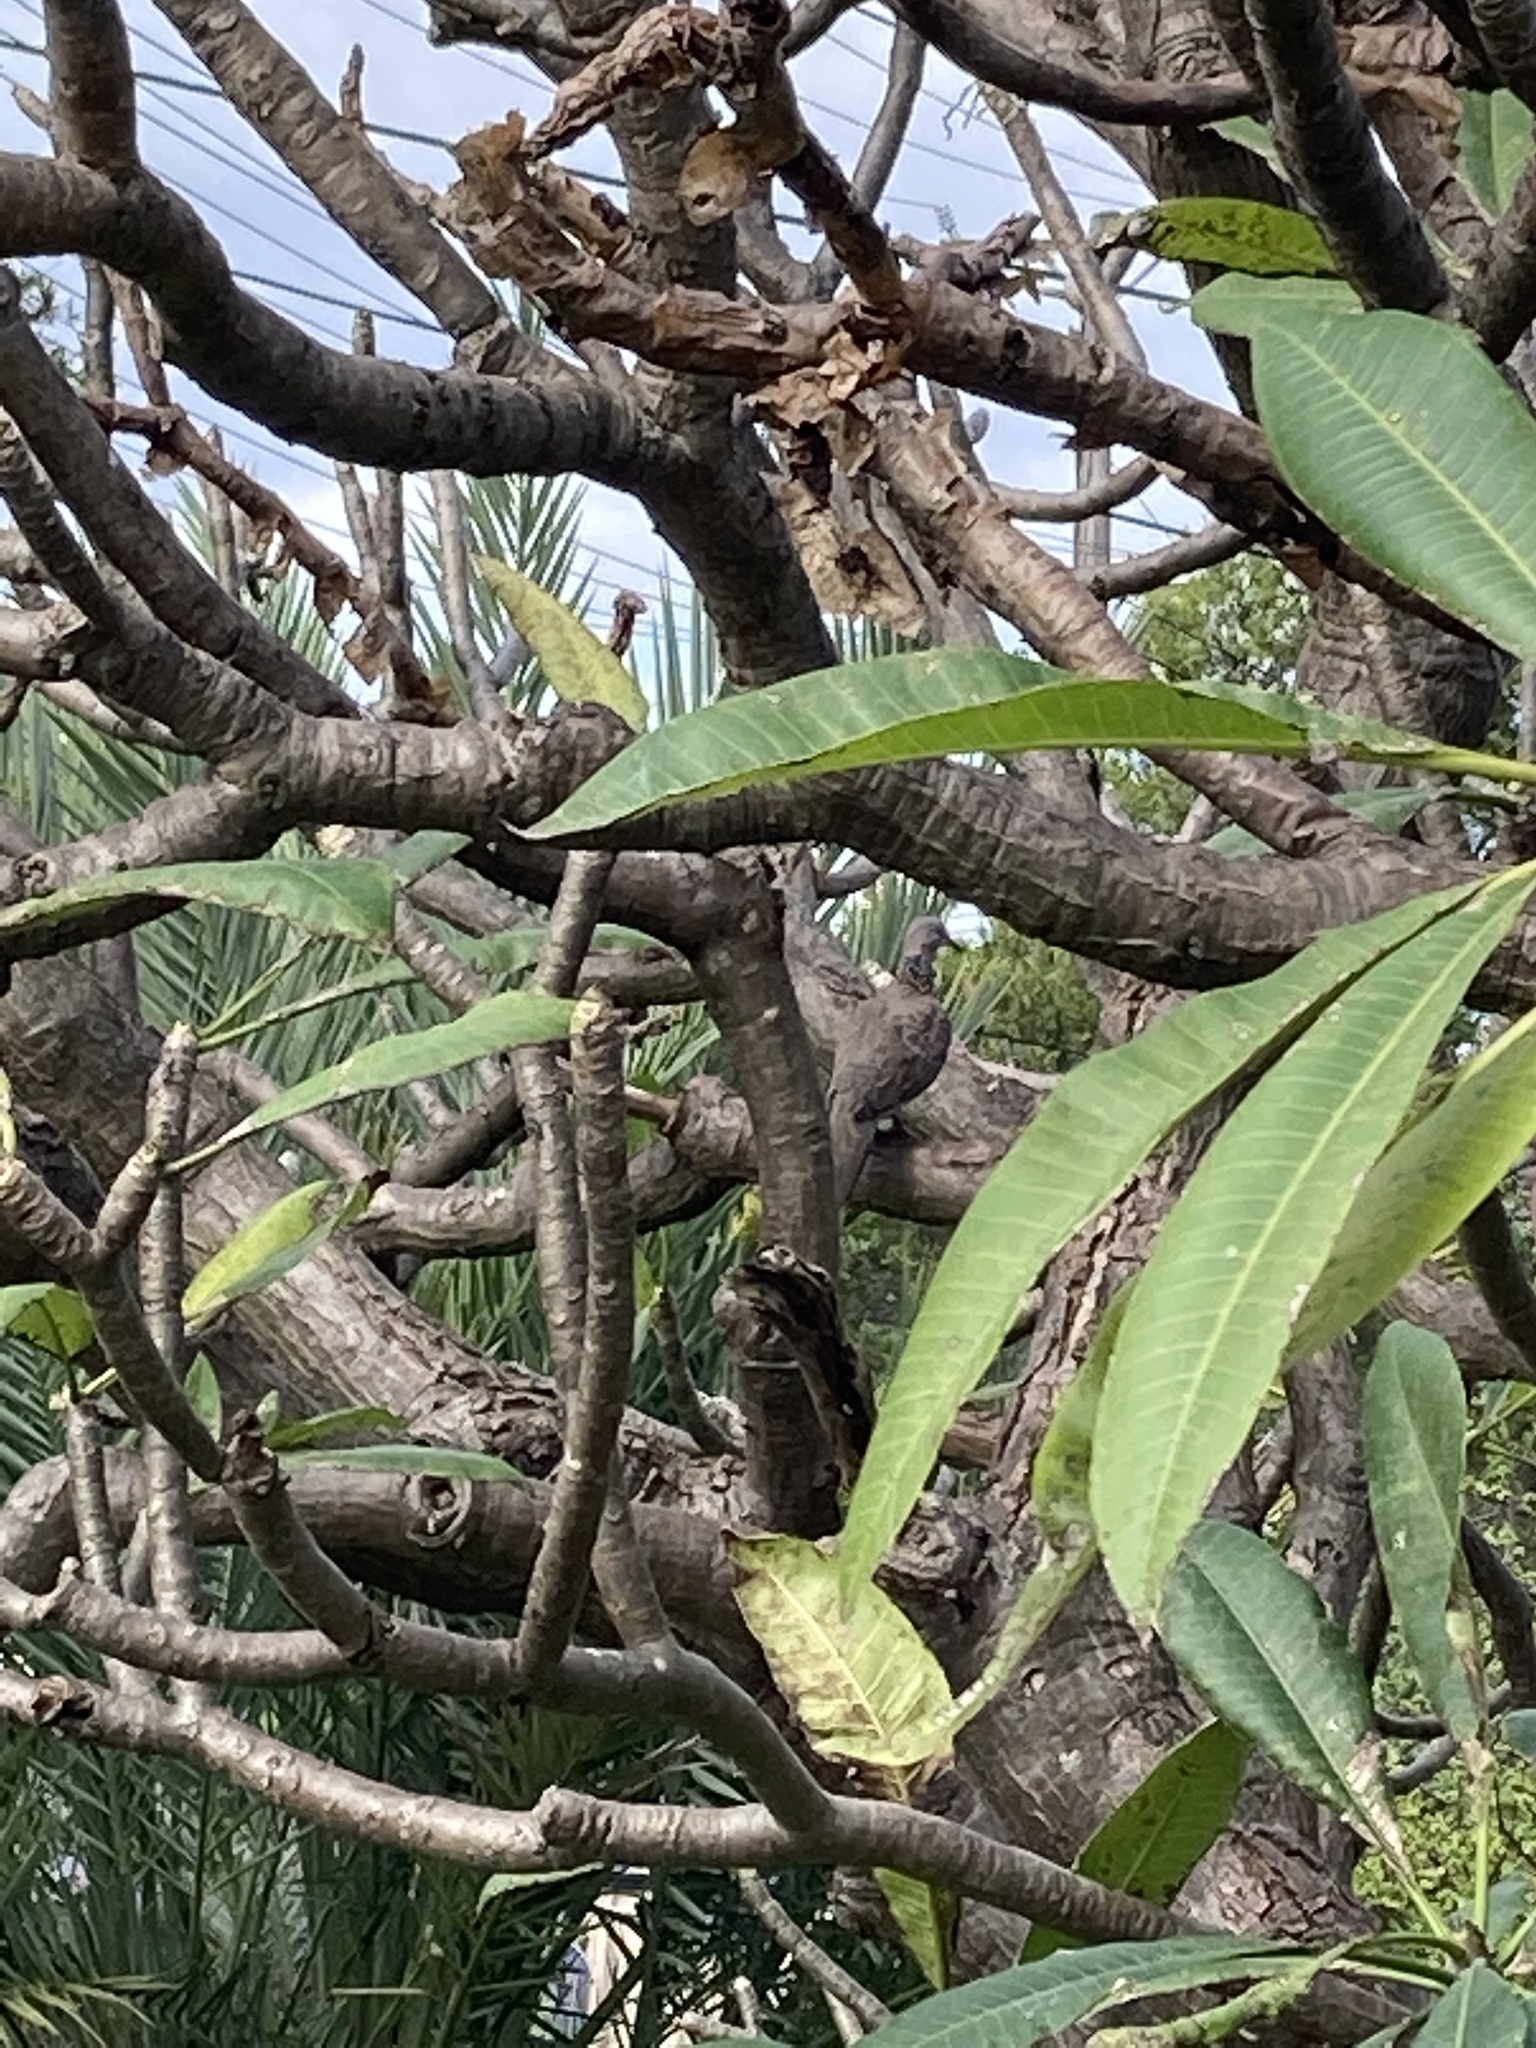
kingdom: Animalia
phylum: Chordata
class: Aves
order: Columbiformes
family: Columbidae
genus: Spilopelia
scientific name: Spilopelia chinensis
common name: Spotted dove
